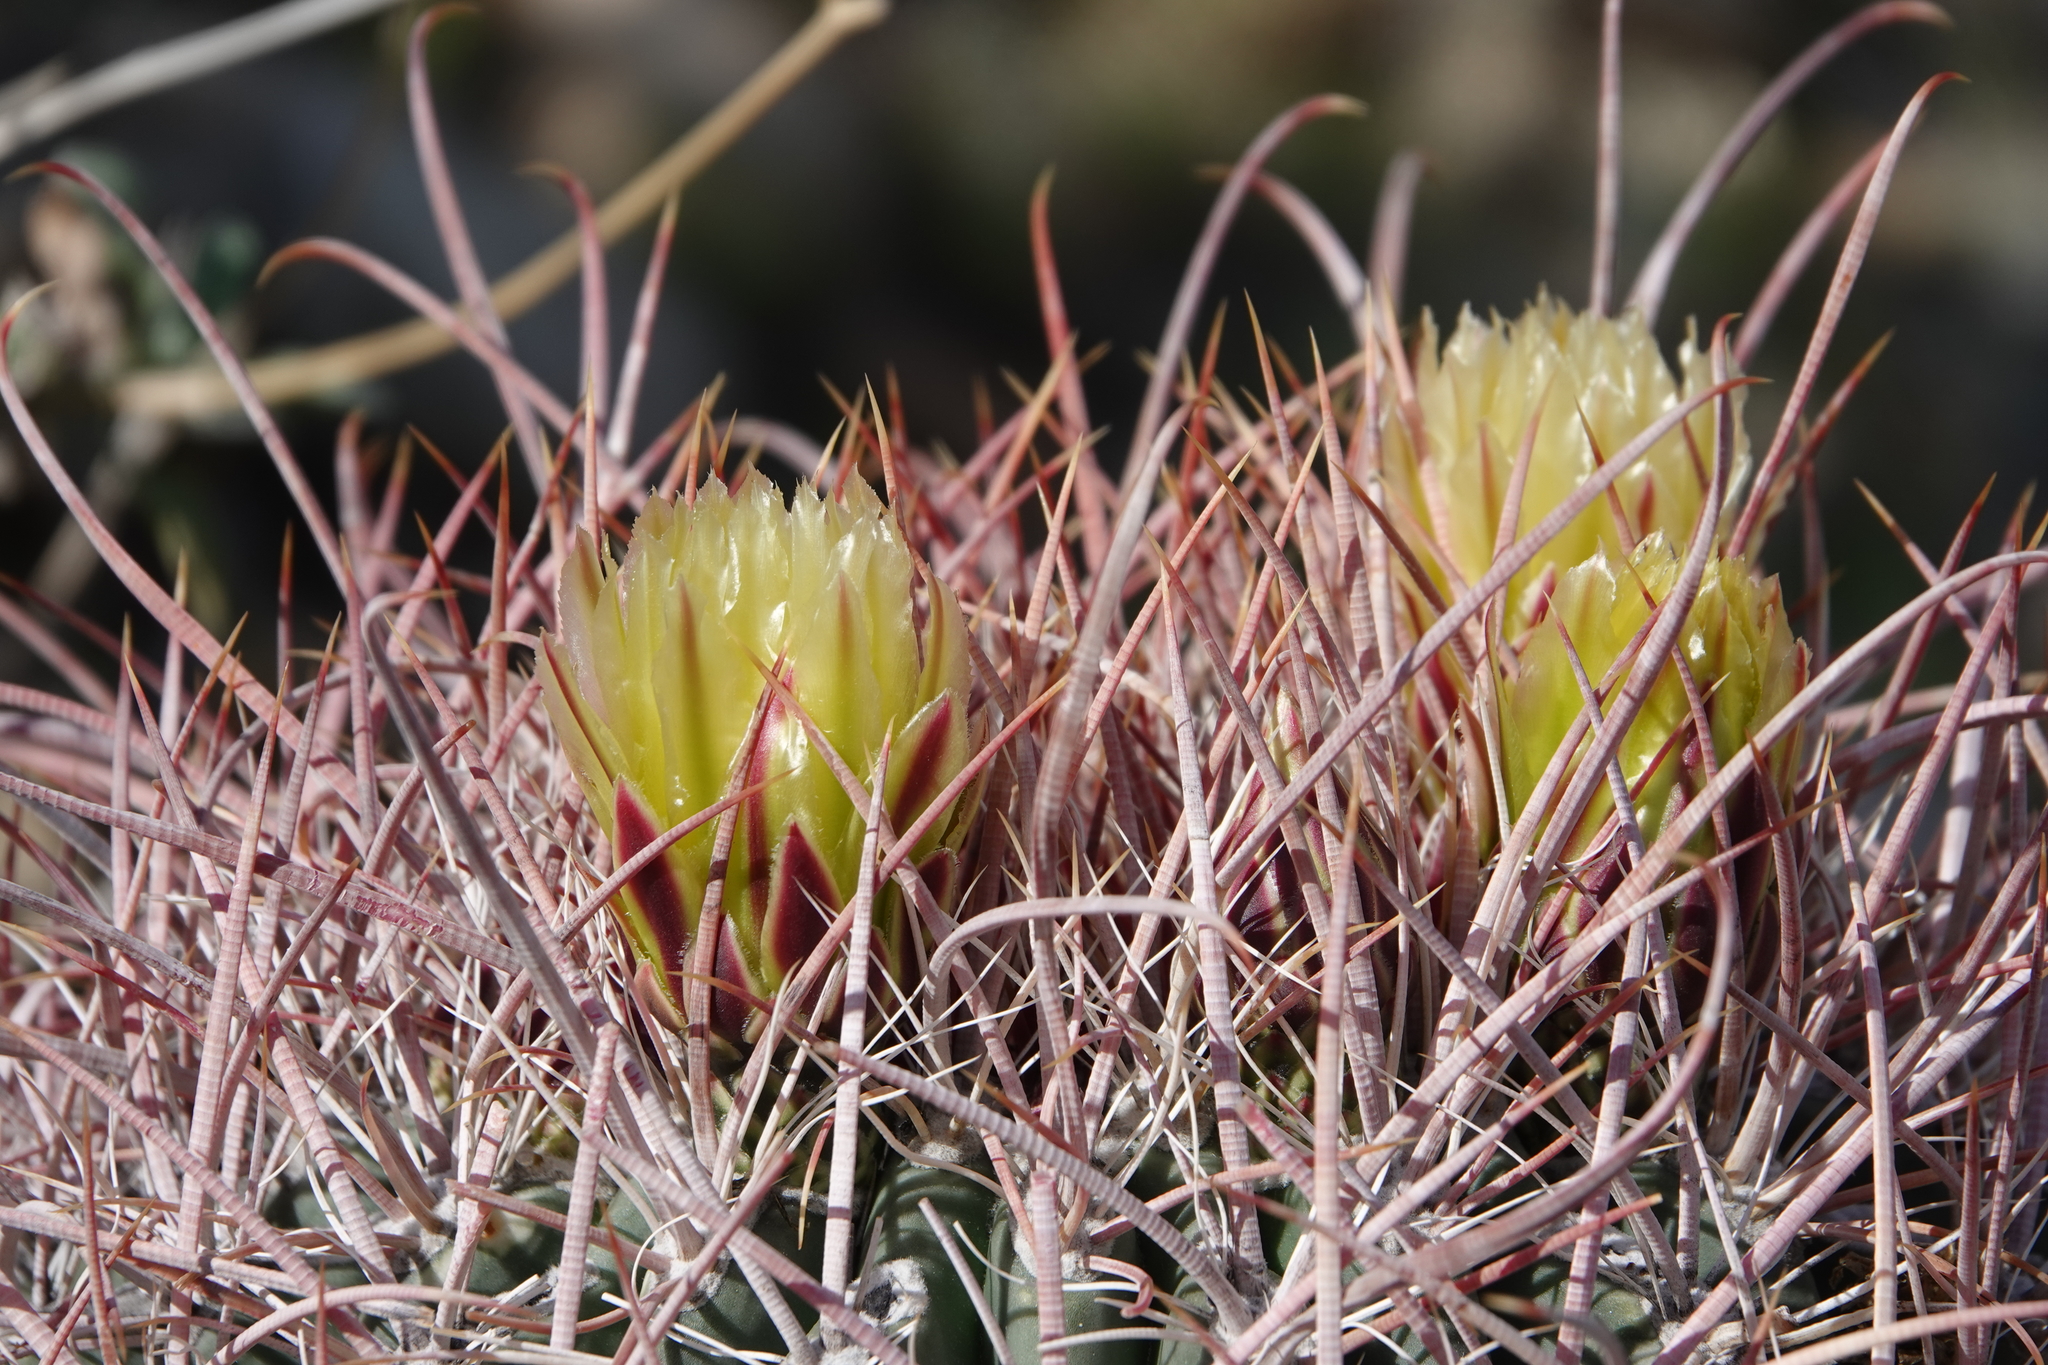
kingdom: Plantae
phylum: Tracheophyta
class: Magnoliopsida
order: Caryophyllales
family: Cactaceae
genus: Ferocactus
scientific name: Ferocactus cylindraceus
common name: California barrel cactus
